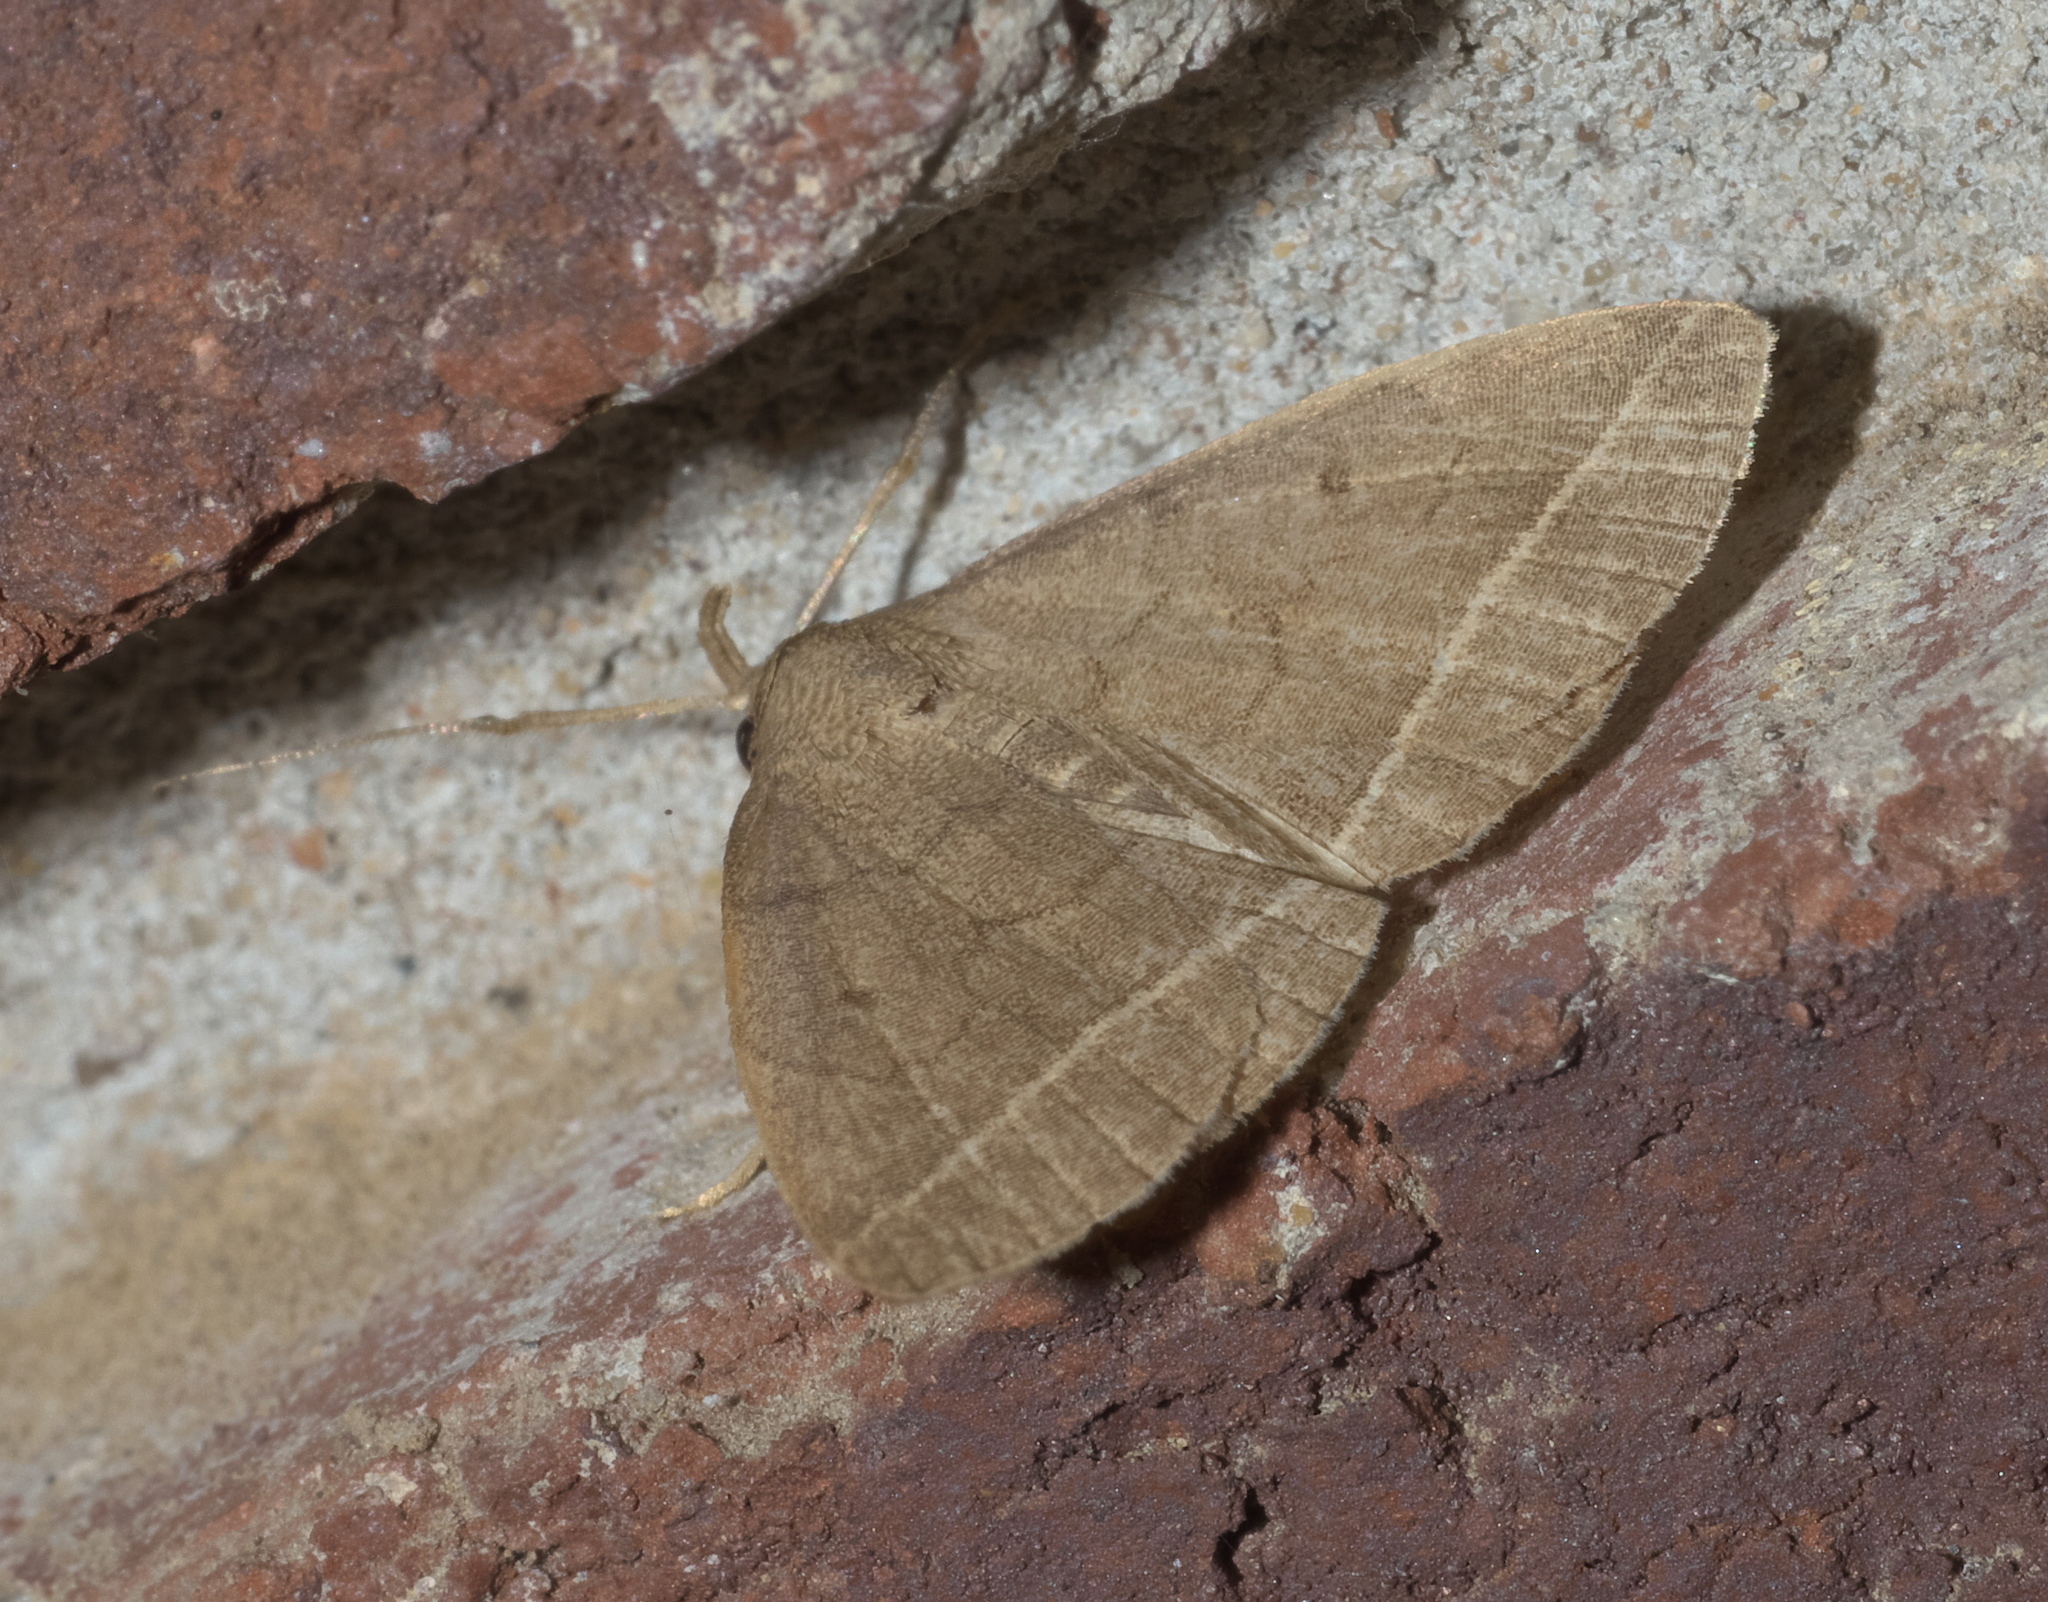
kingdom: Animalia
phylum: Arthropoda
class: Insecta
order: Lepidoptera
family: Erebidae
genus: Zanclognatha
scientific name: Zanclognatha marcidilinea
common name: Yellowish fan-foot
